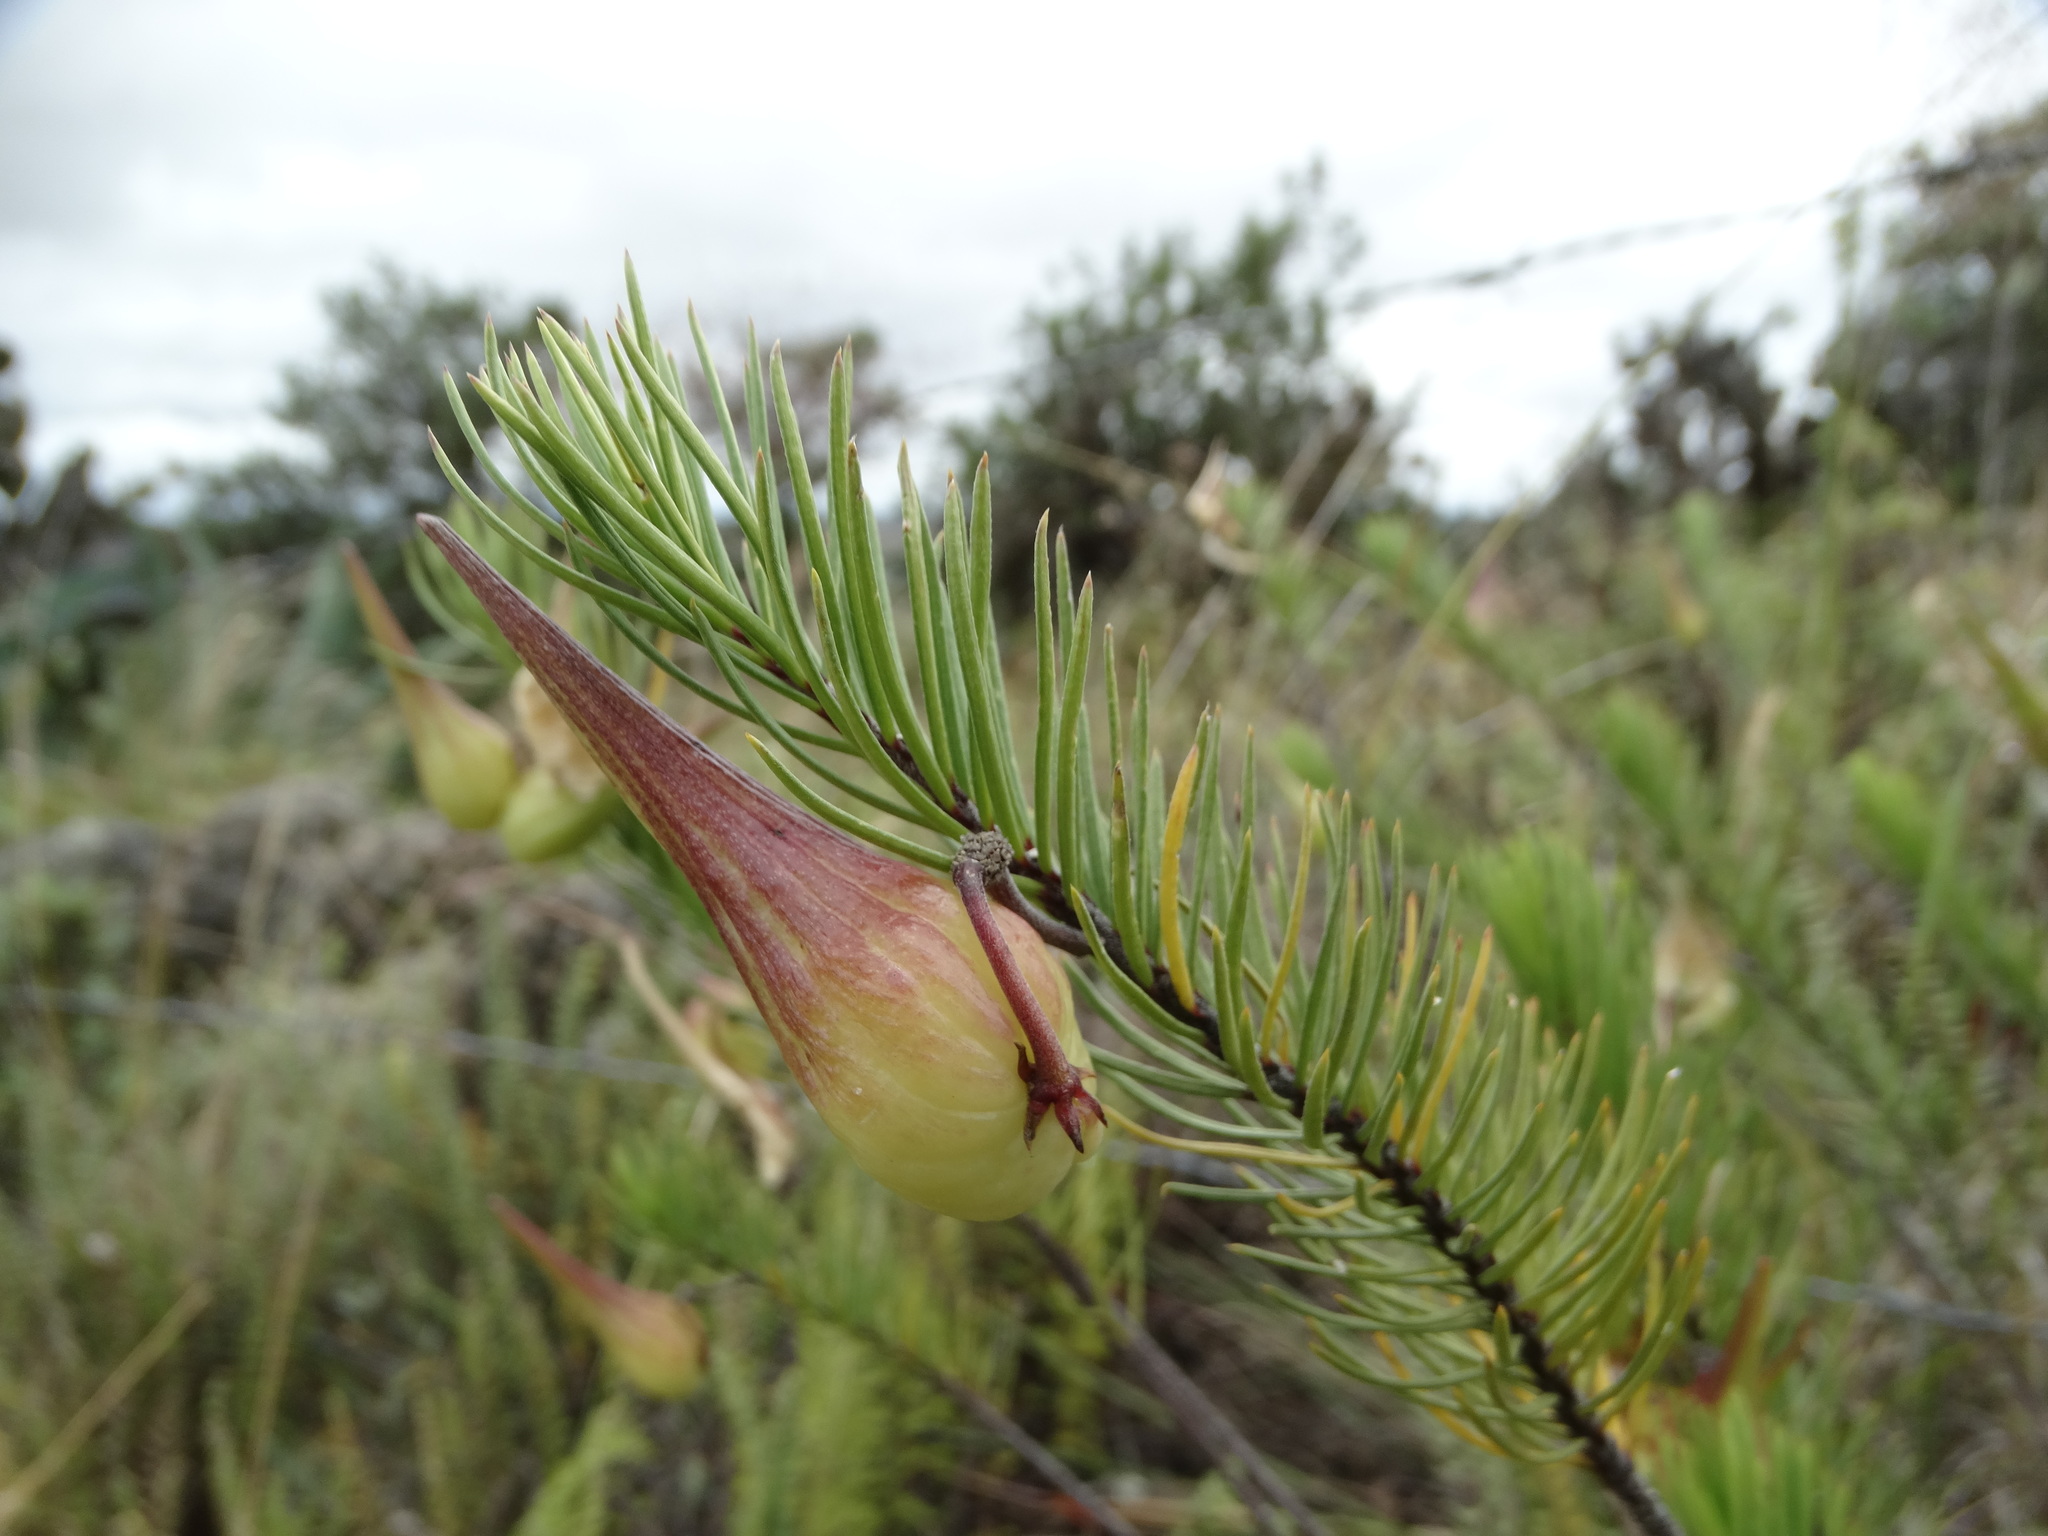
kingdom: Plantae
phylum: Tracheophyta
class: Magnoliopsida
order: Gentianales
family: Apocynaceae
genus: Asclepias
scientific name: Asclepias linaria
